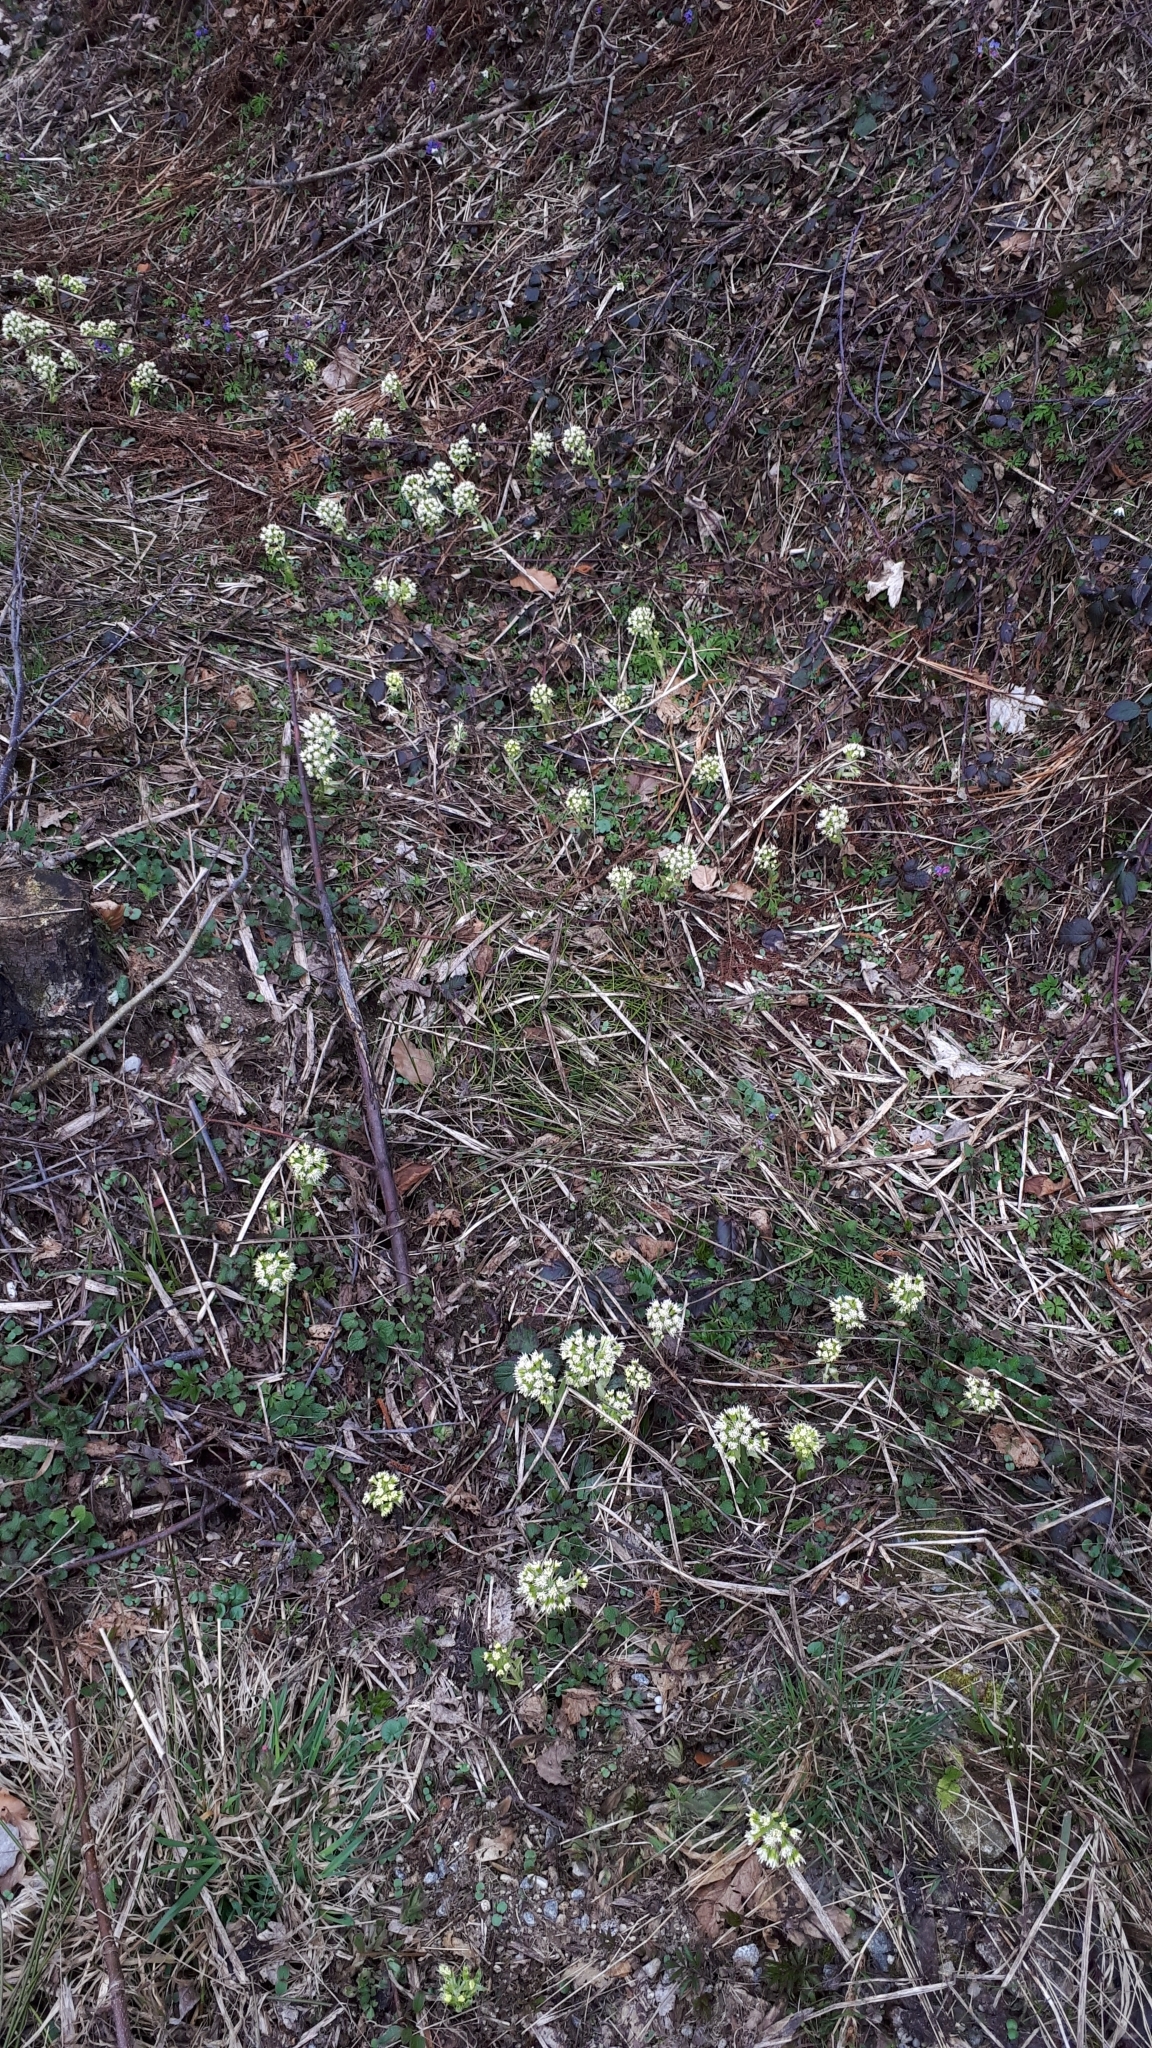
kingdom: Plantae
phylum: Tracheophyta
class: Magnoliopsida
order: Asterales
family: Asteraceae
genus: Petasites
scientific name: Petasites albus
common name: White butterbur
